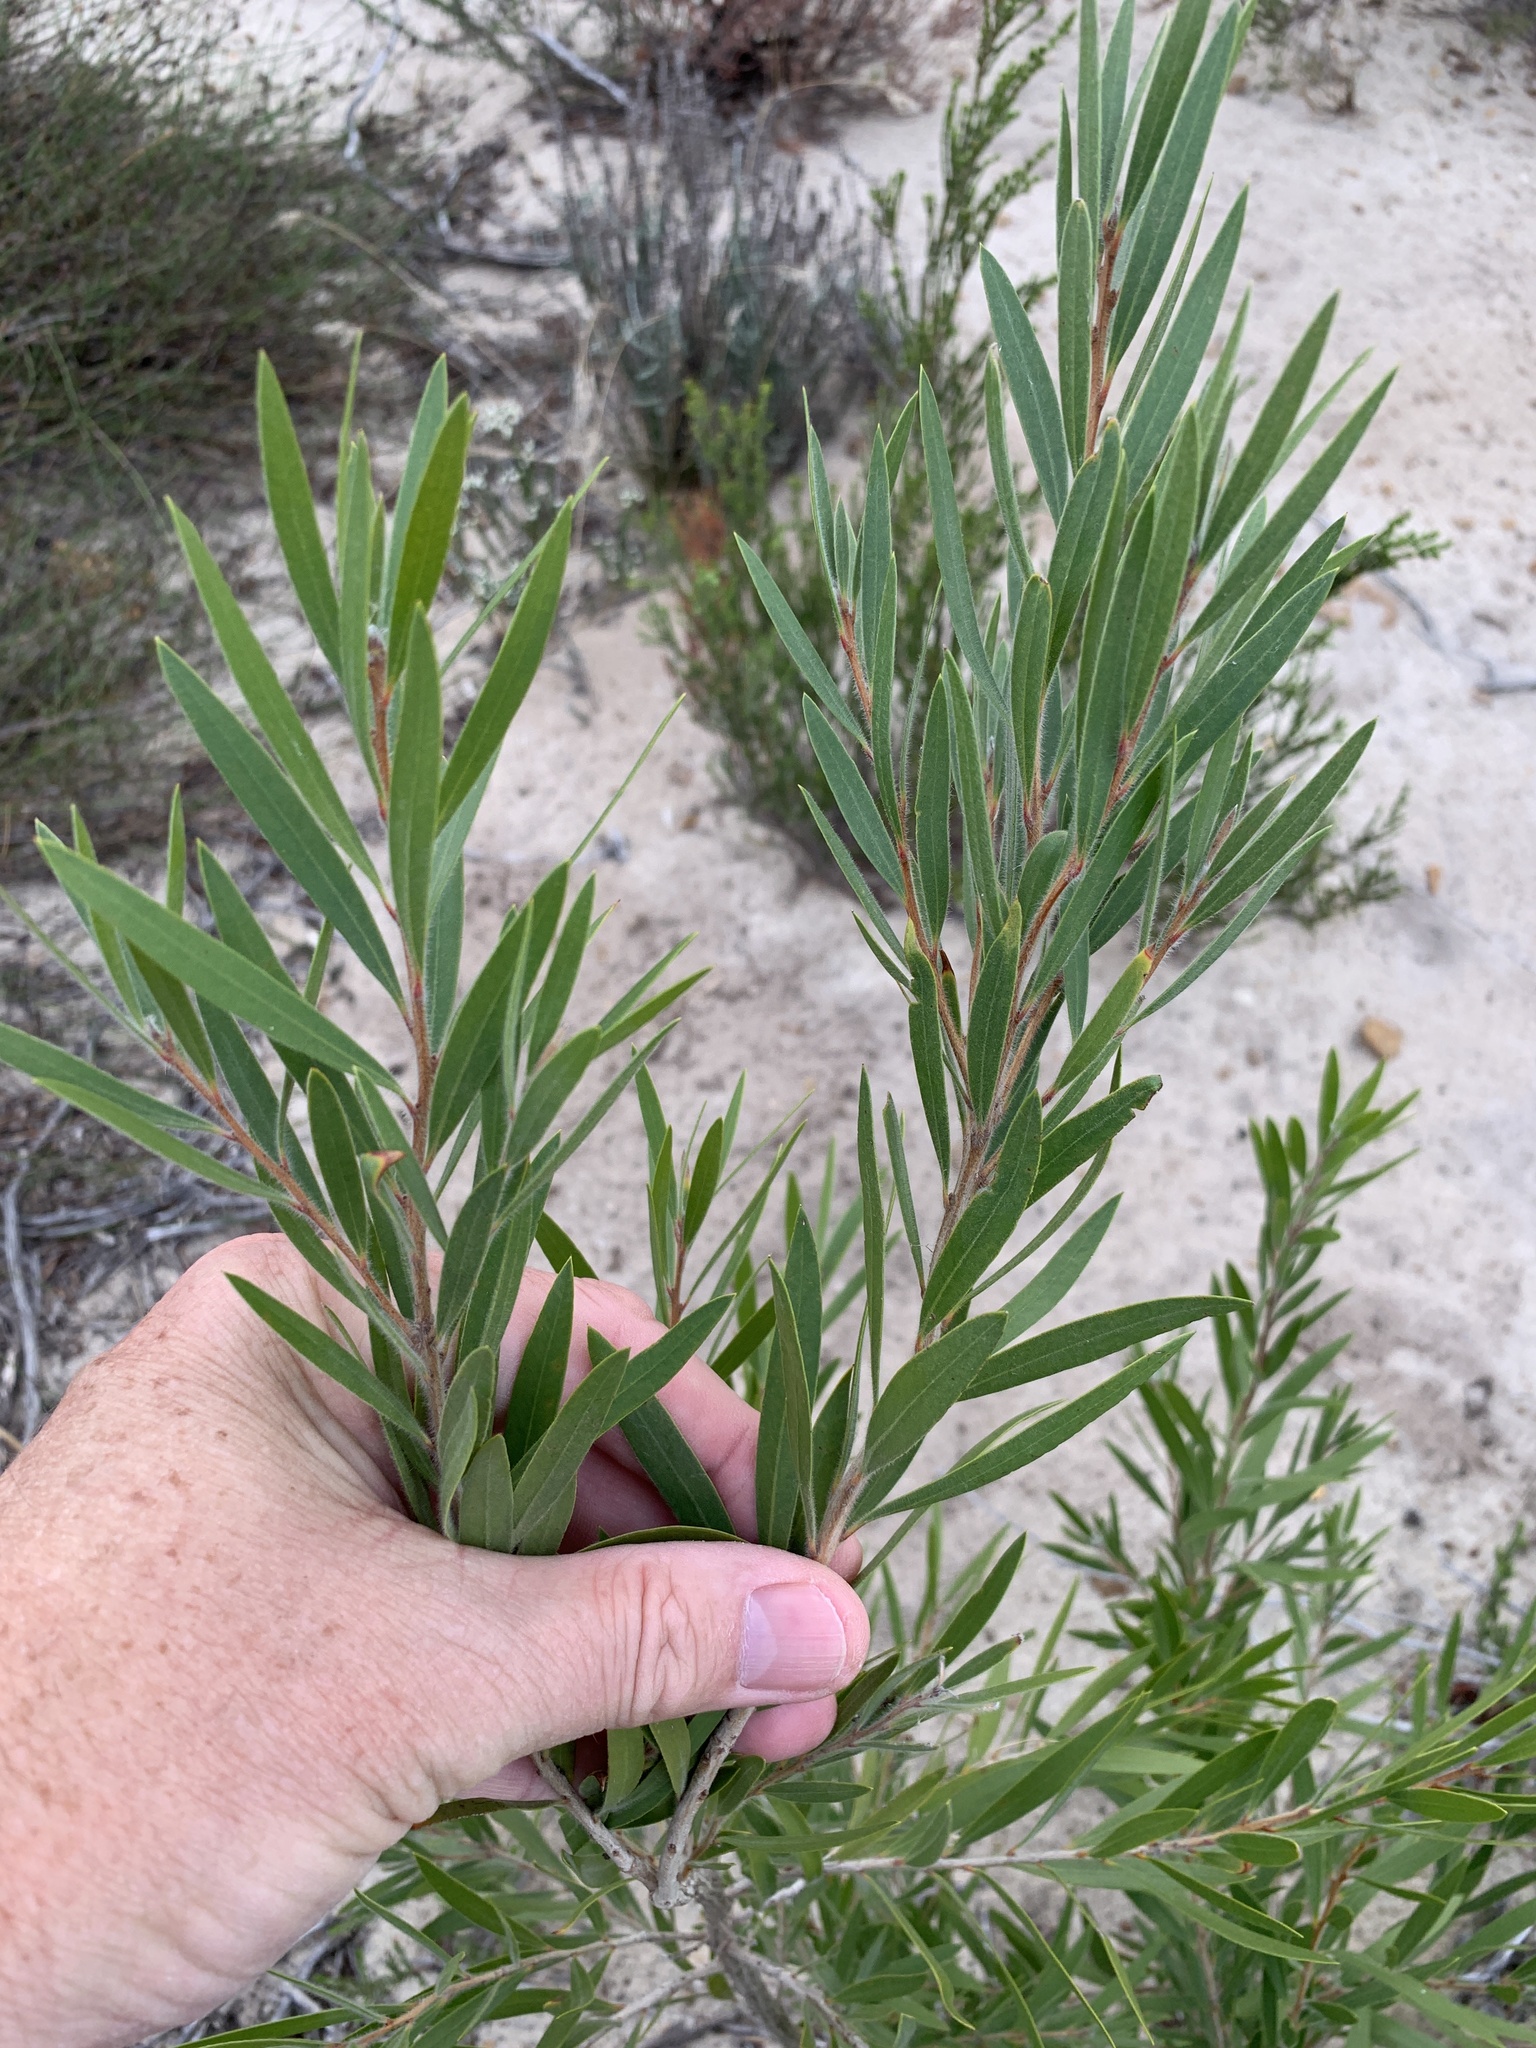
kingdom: Plantae
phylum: Tracheophyta
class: Magnoliopsida
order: Myrtales
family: Myrtaceae
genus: Callistemon
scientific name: Callistemon viminalis
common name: Drooping bottlebrush
